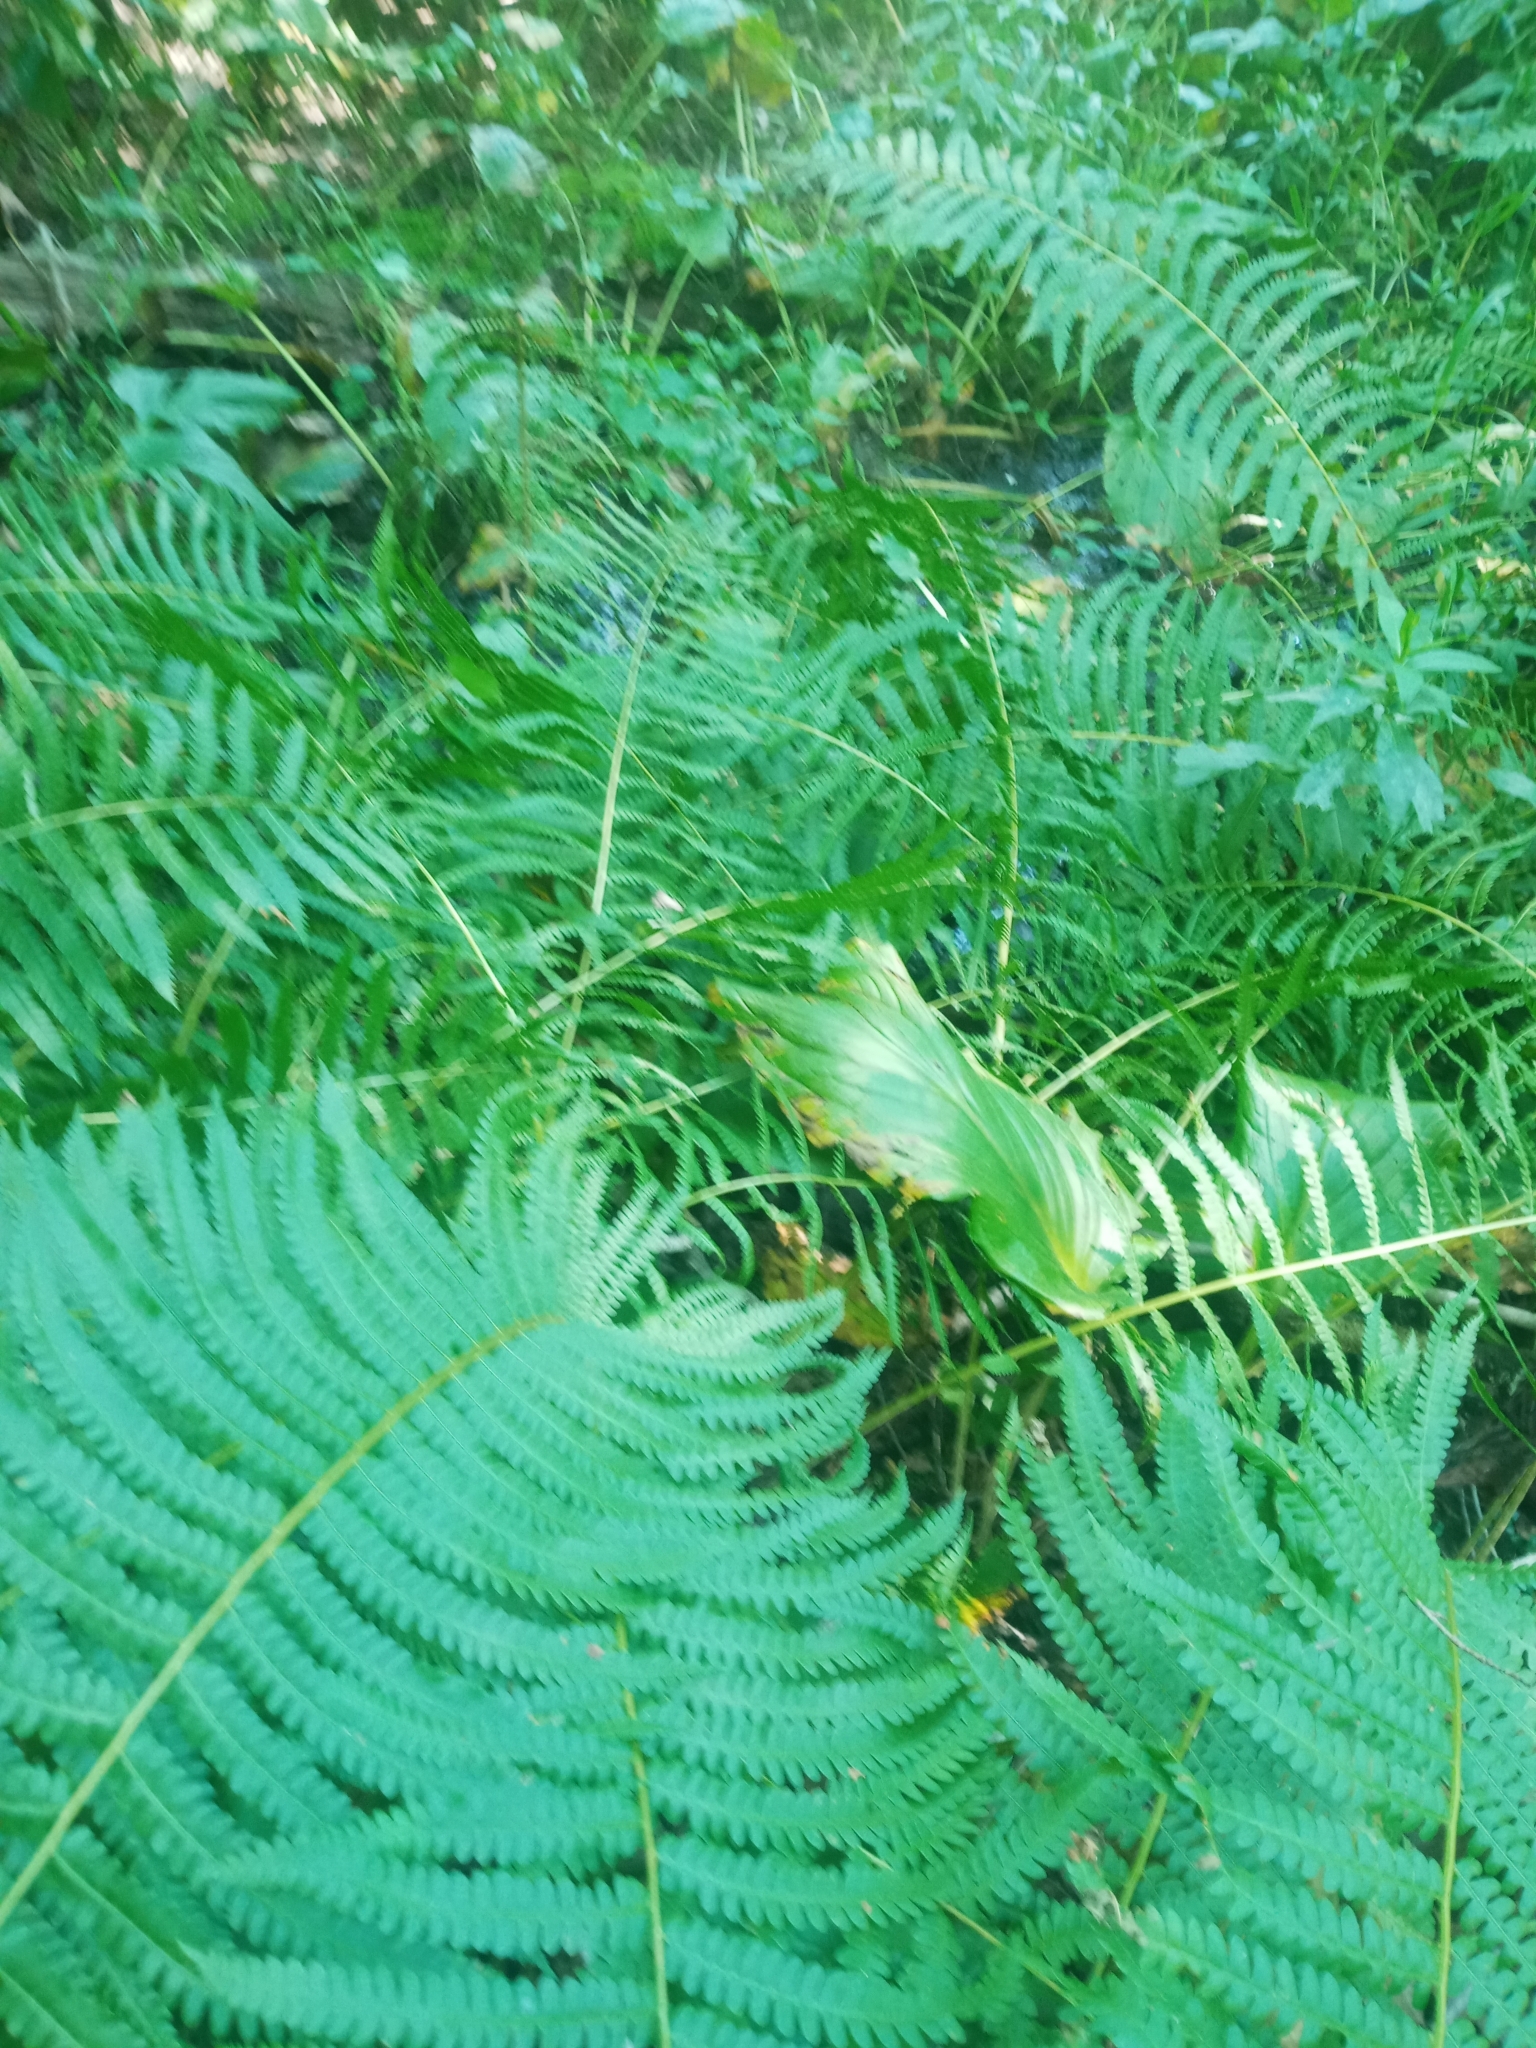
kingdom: Plantae
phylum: Tracheophyta
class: Polypodiopsida
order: Osmundales
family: Osmundaceae
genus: Osmundastrum
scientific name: Osmundastrum cinnamomeum
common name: Cinnamon fern
